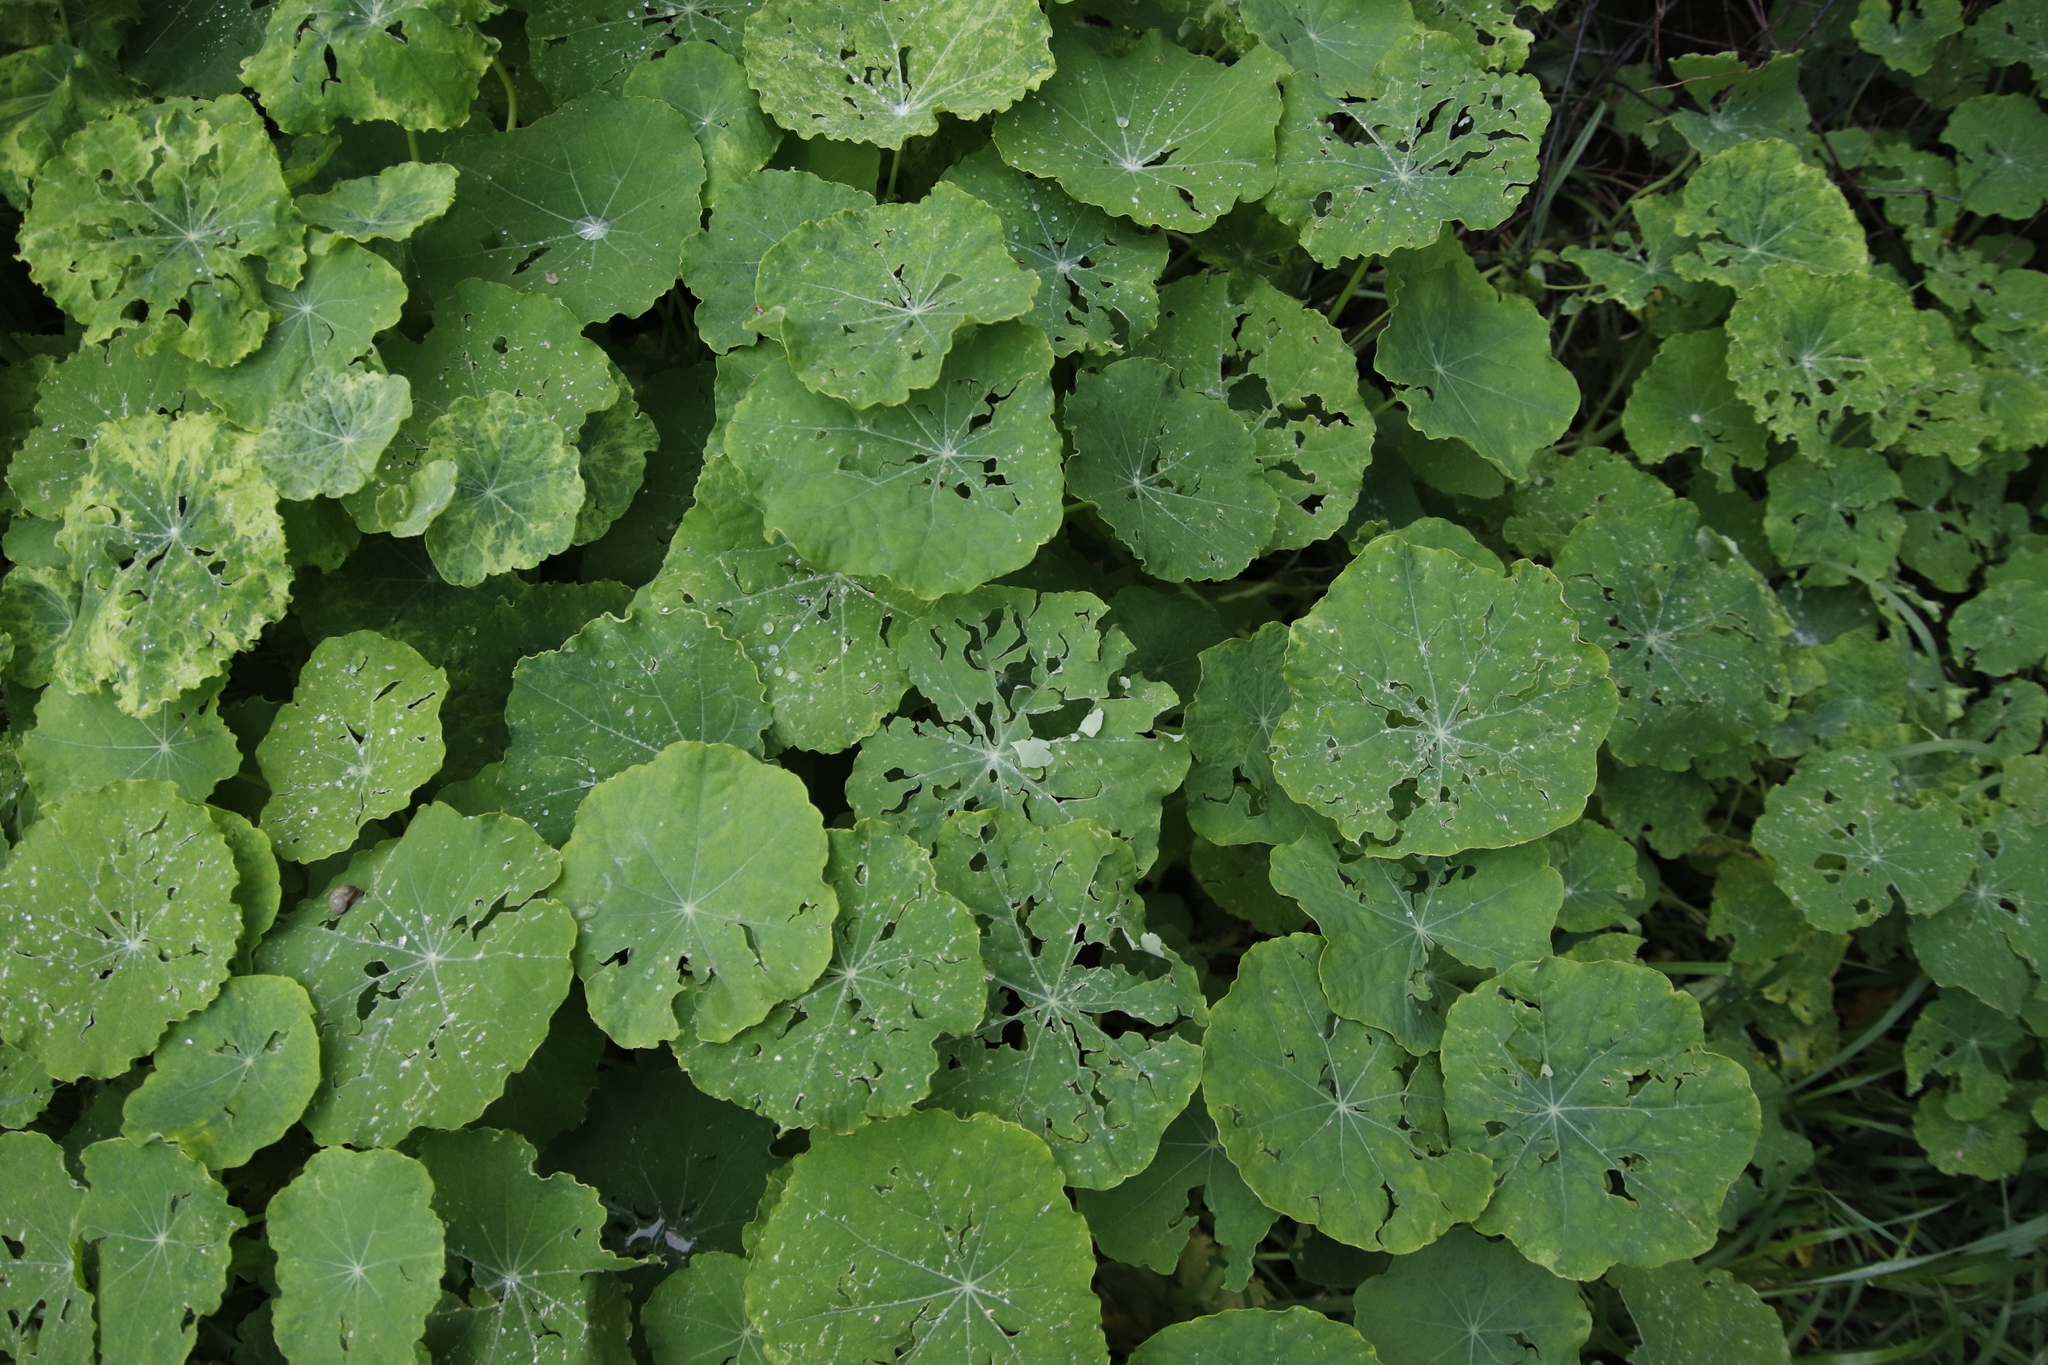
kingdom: Plantae
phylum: Tracheophyta
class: Magnoliopsida
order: Brassicales
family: Tropaeolaceae
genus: Tropaeolum
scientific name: Tropaeolum majus
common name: Nasturtium
